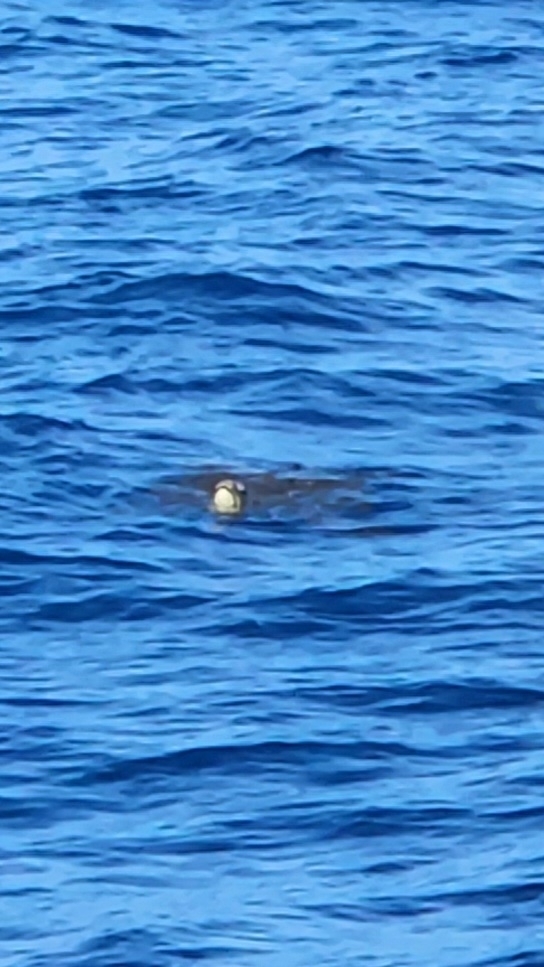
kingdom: Animalia
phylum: Chordata
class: Testudines
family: Cheloniidae
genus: Chelonia
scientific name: Chelonia mydas
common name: Green turtle
